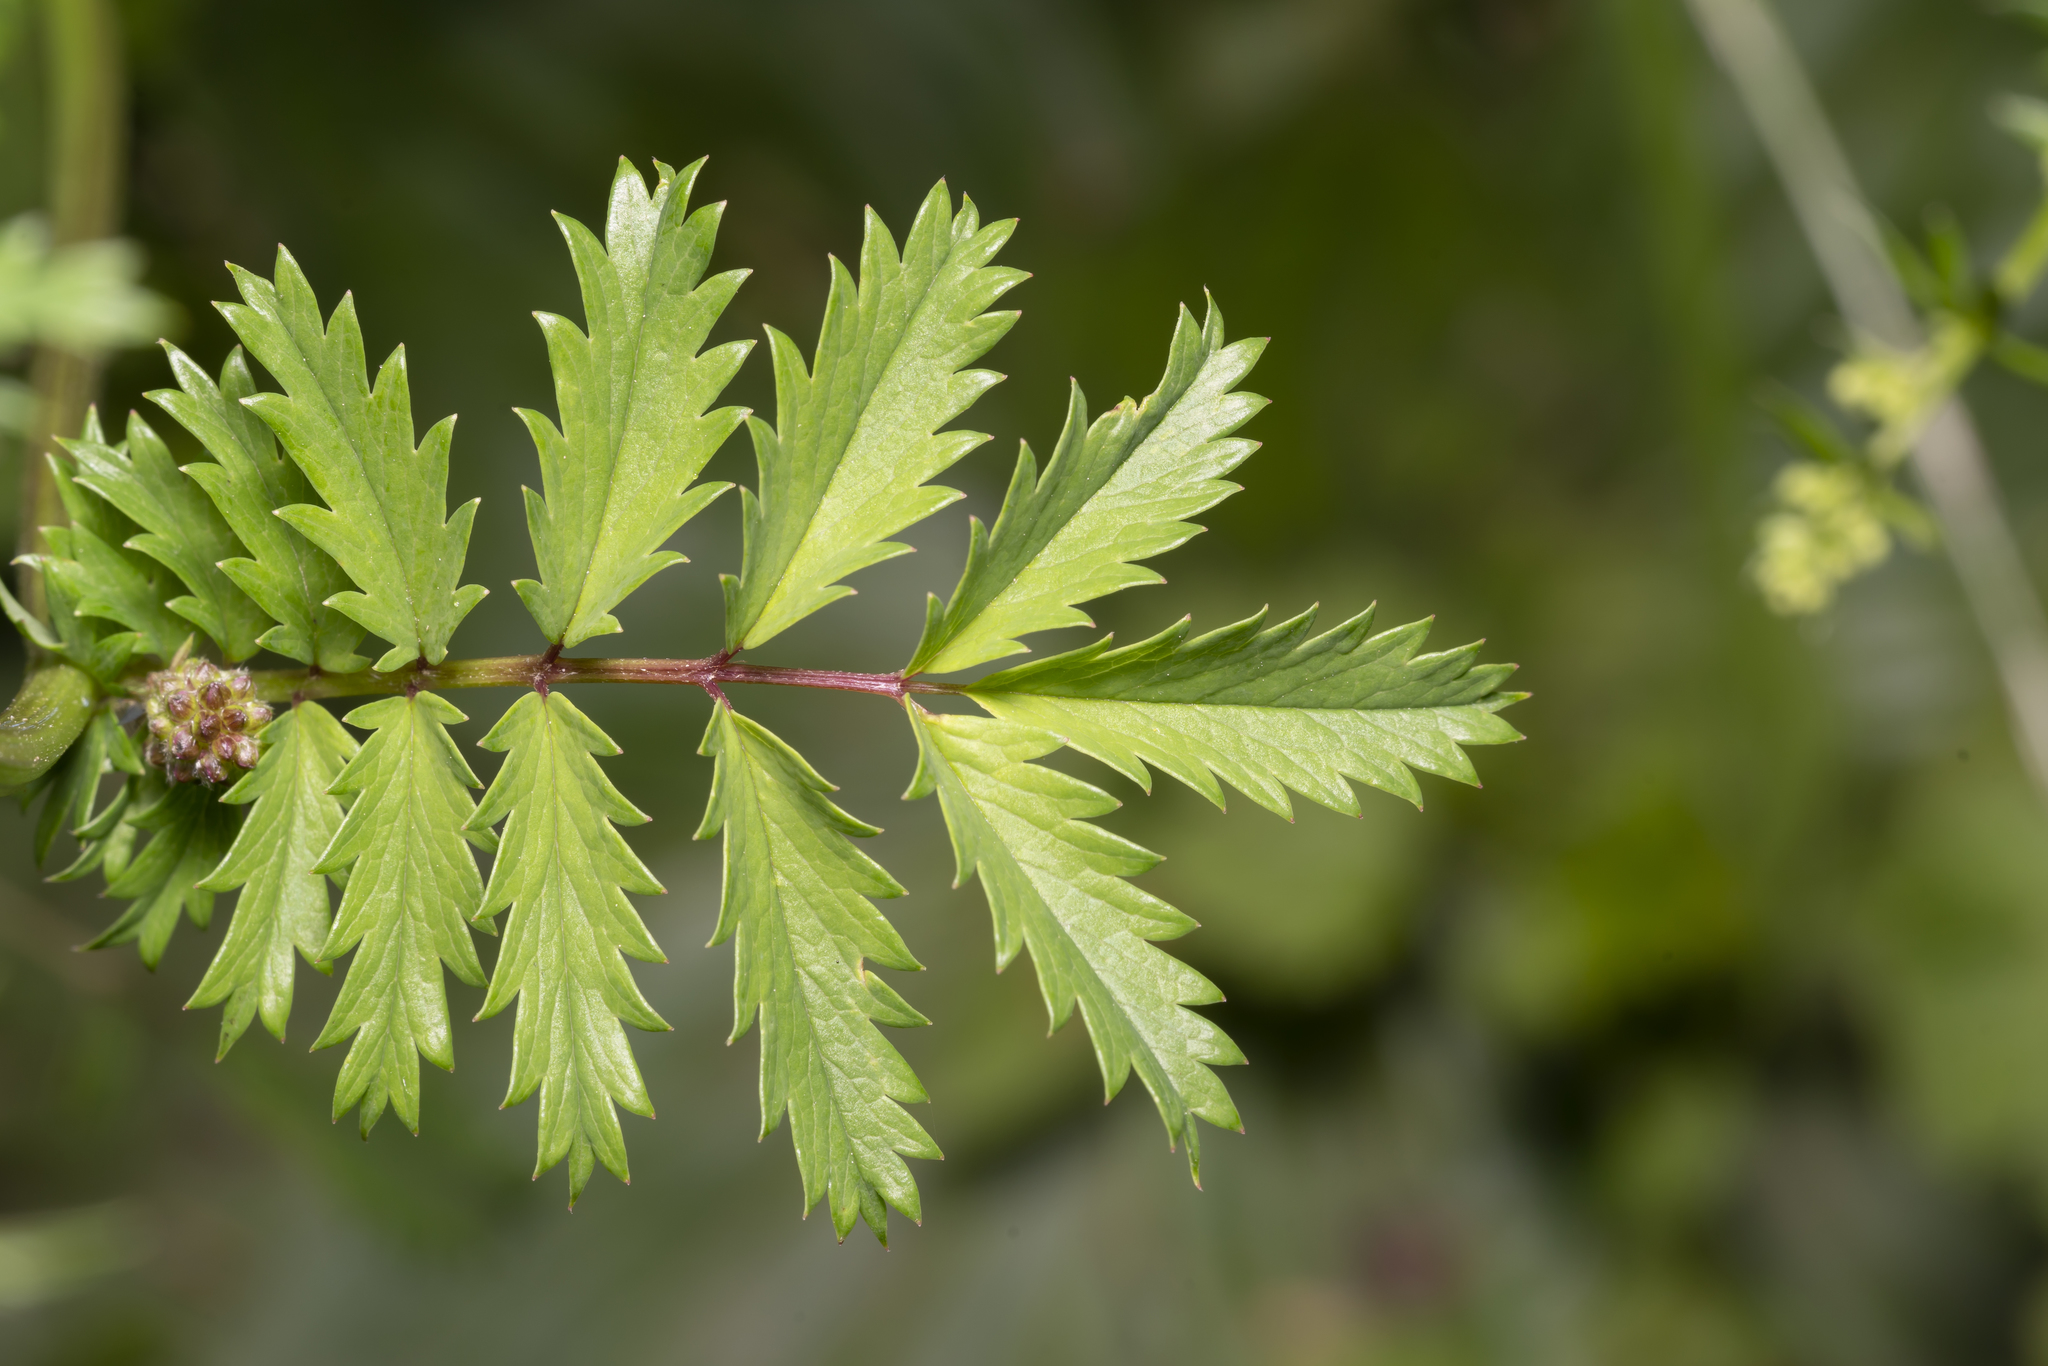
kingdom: Plantae
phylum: Tracheophyta
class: Magnoliopsida
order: Rosales
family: Rosaceae
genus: Poterium
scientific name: Poterium sanguisorba
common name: Salad burnet
